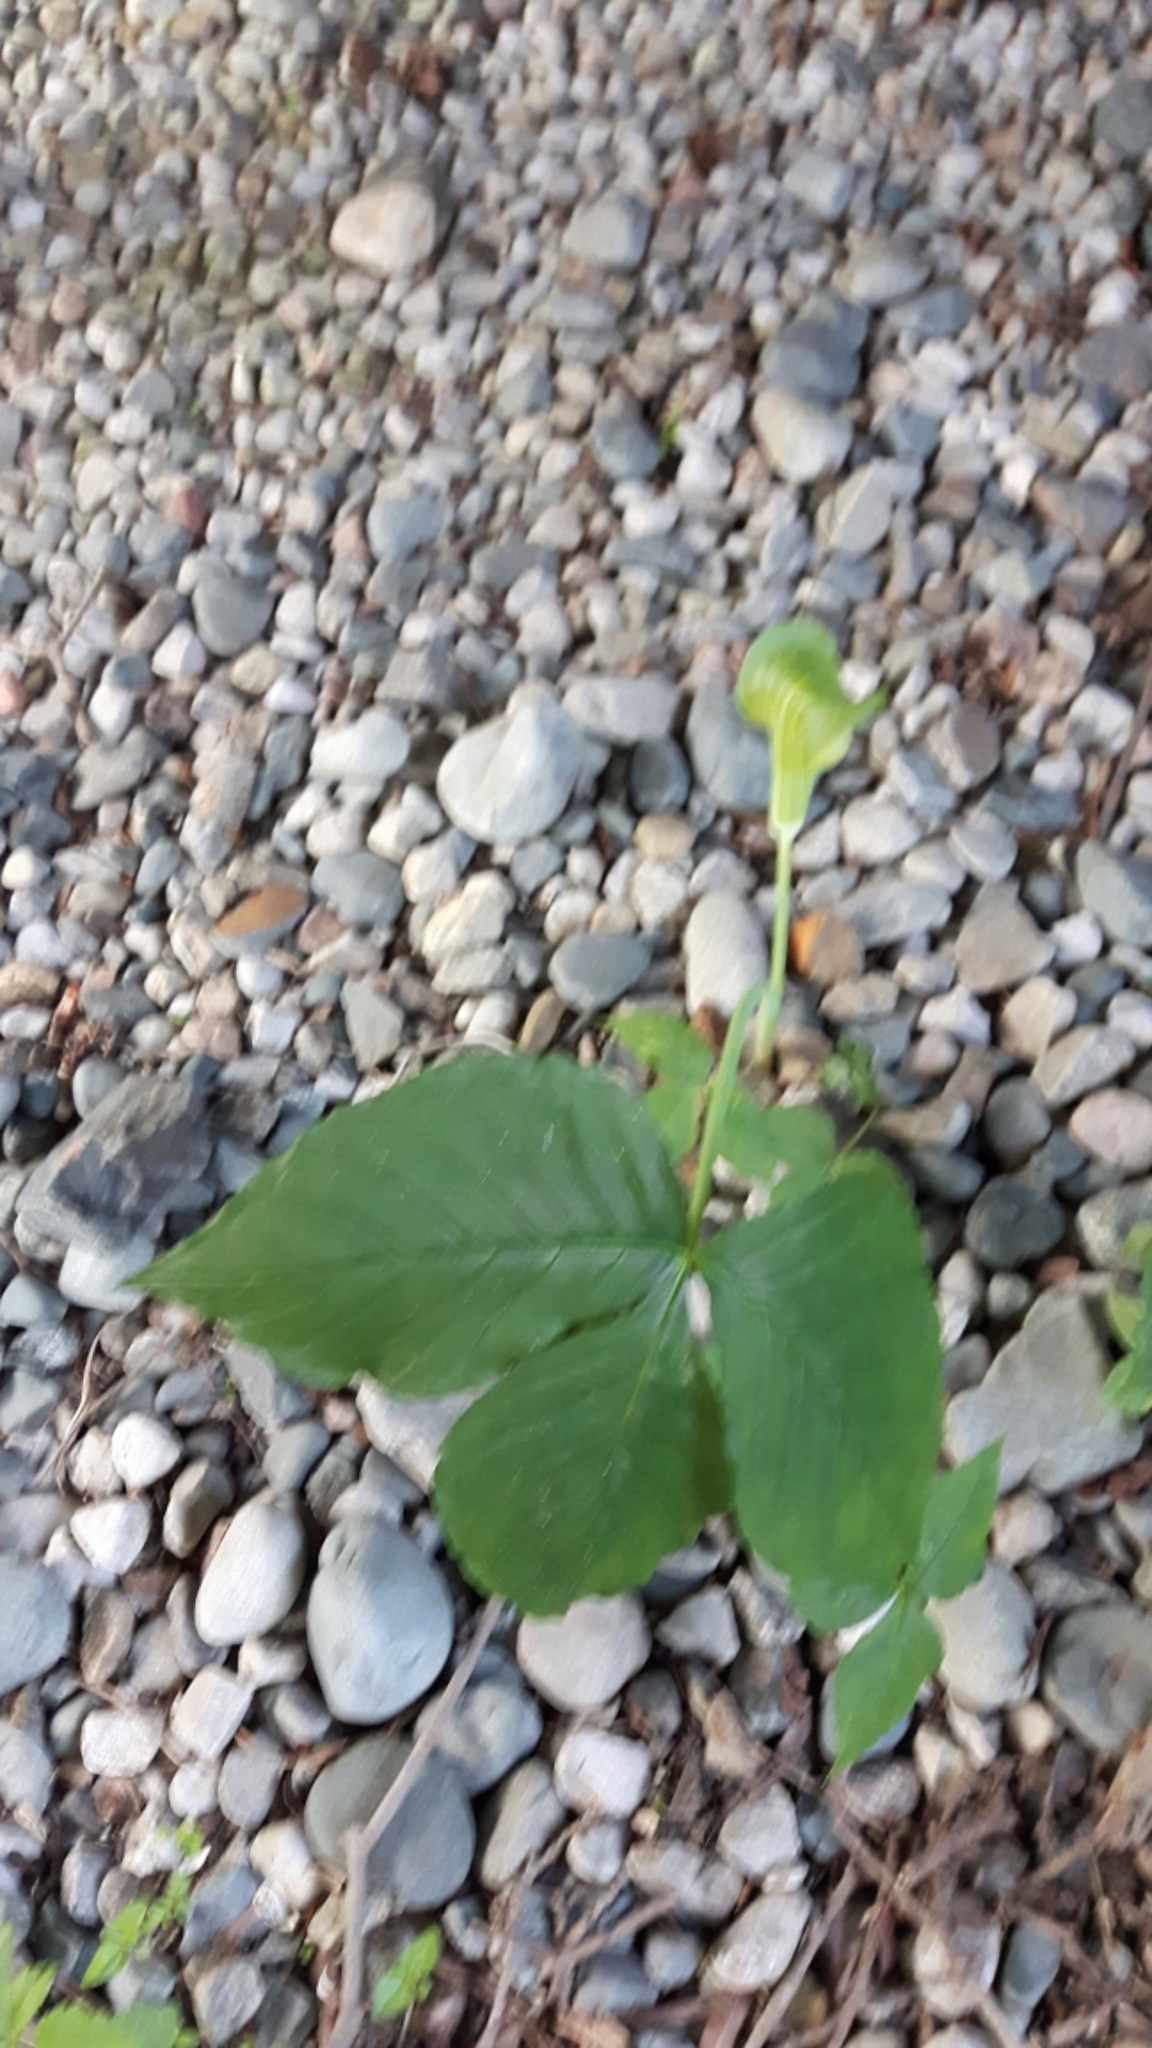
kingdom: Plantae
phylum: Tracheophyta
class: Liliopsida
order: Alismatales
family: Araceae
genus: Arisaema
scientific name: Arisaema triphyllum
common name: Jack-in-the-pulpit
